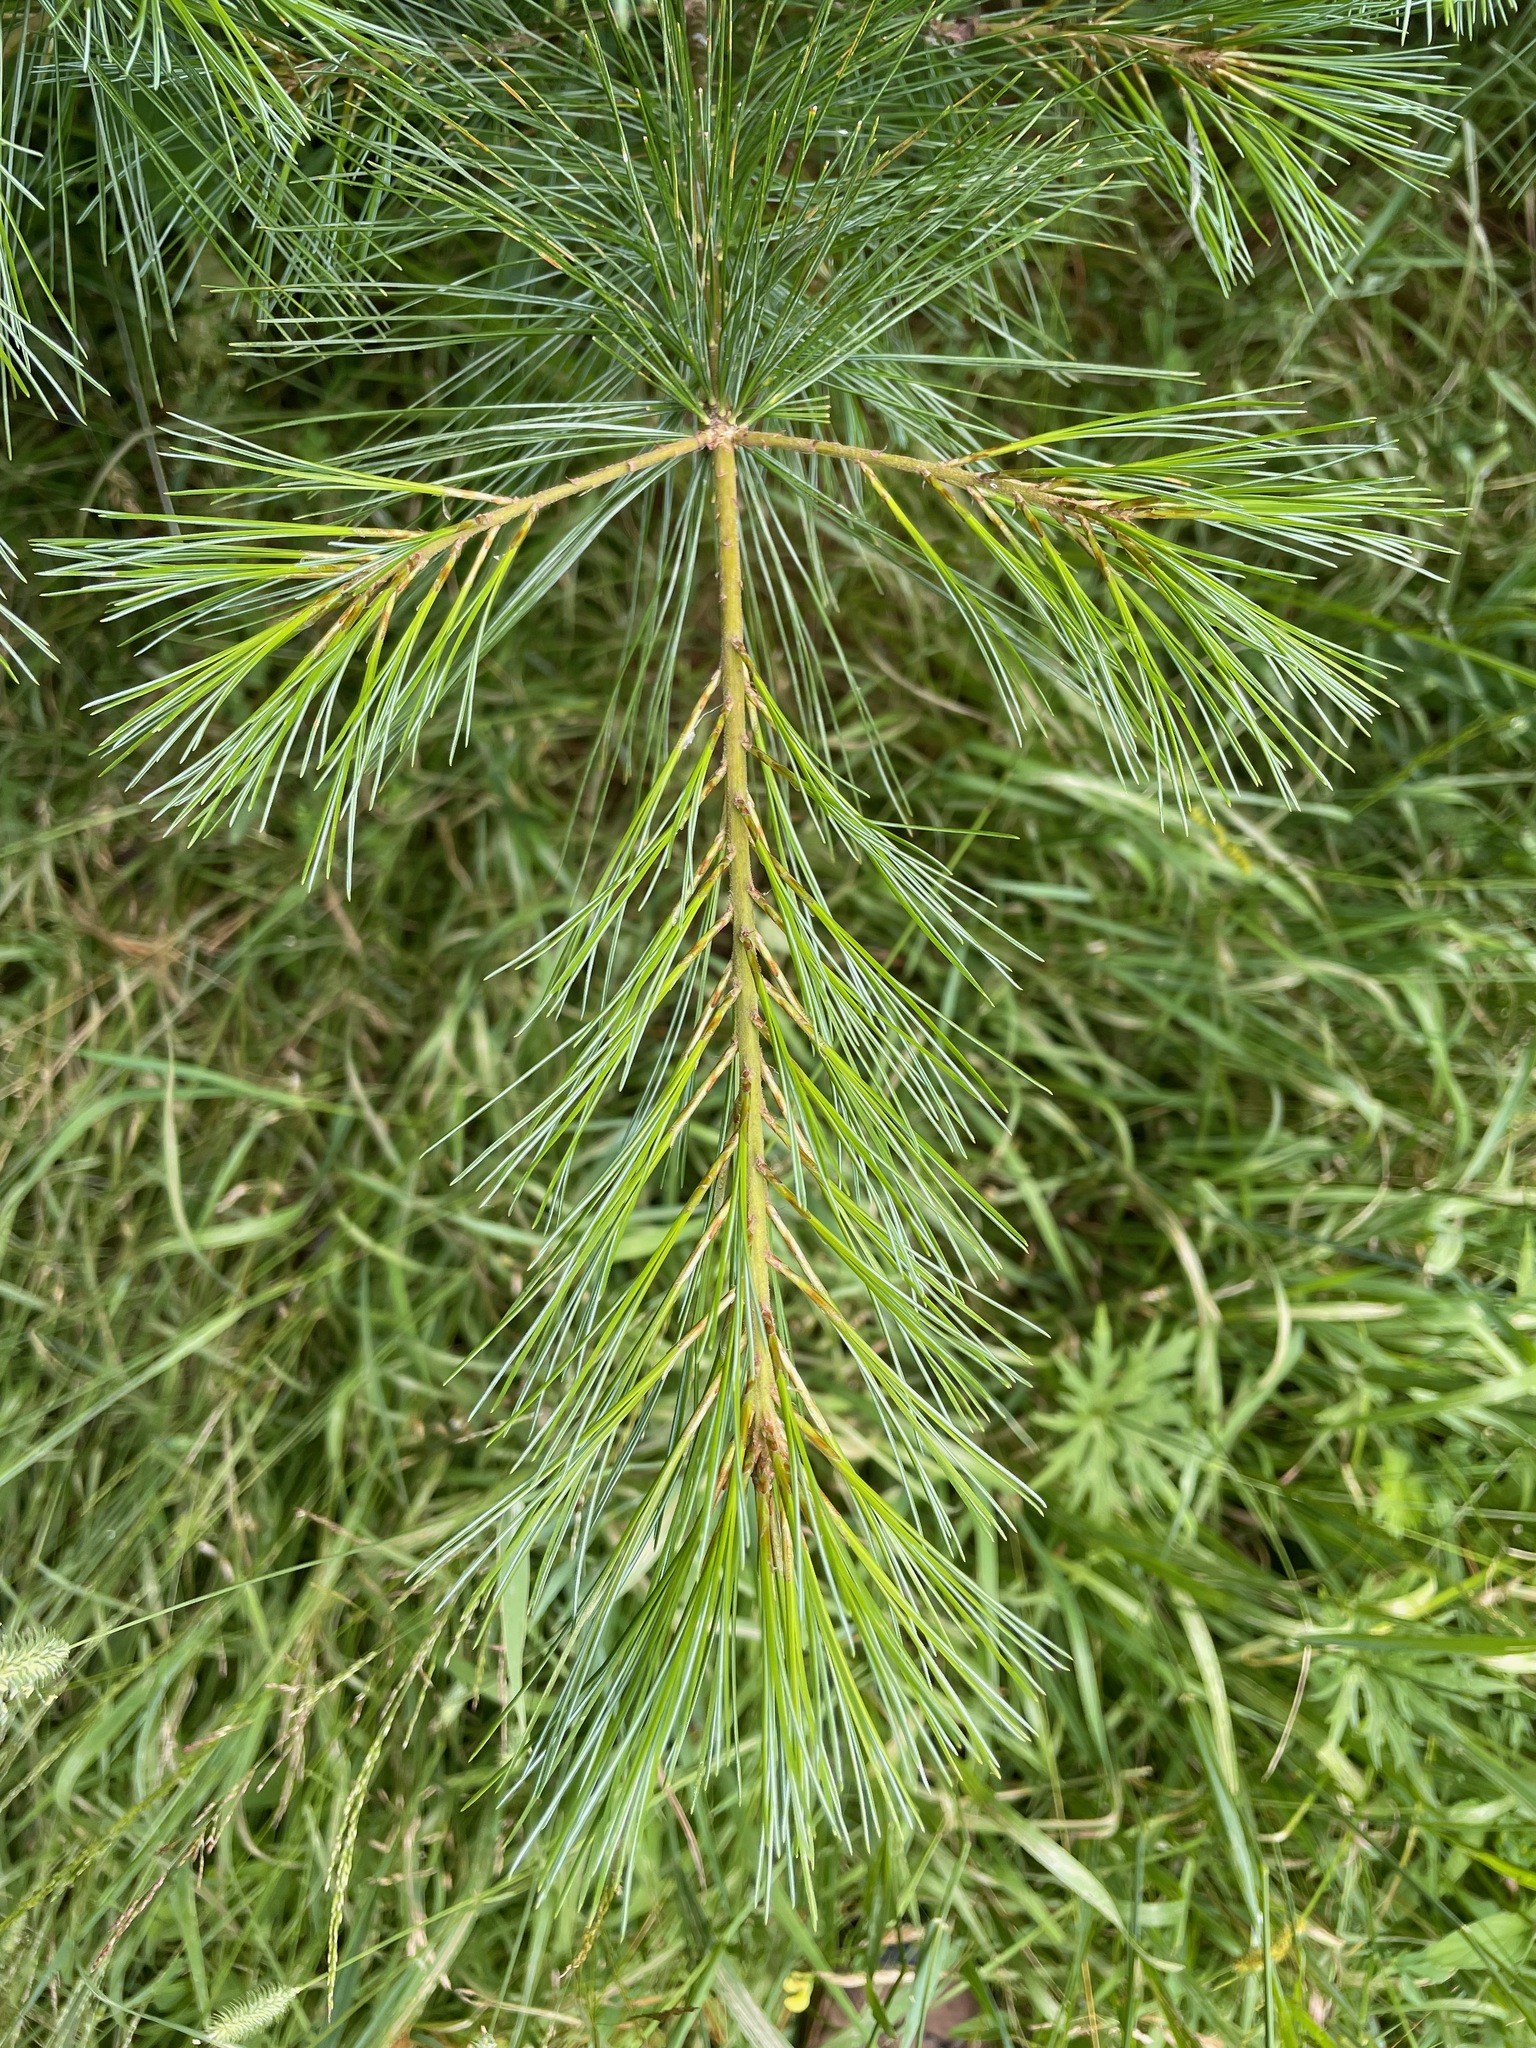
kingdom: Plantae
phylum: Tracheophyta
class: Pinopsida
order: Pinales
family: Pinaceae
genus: Pinus
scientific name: Pinus strobus
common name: Weymouth pine
